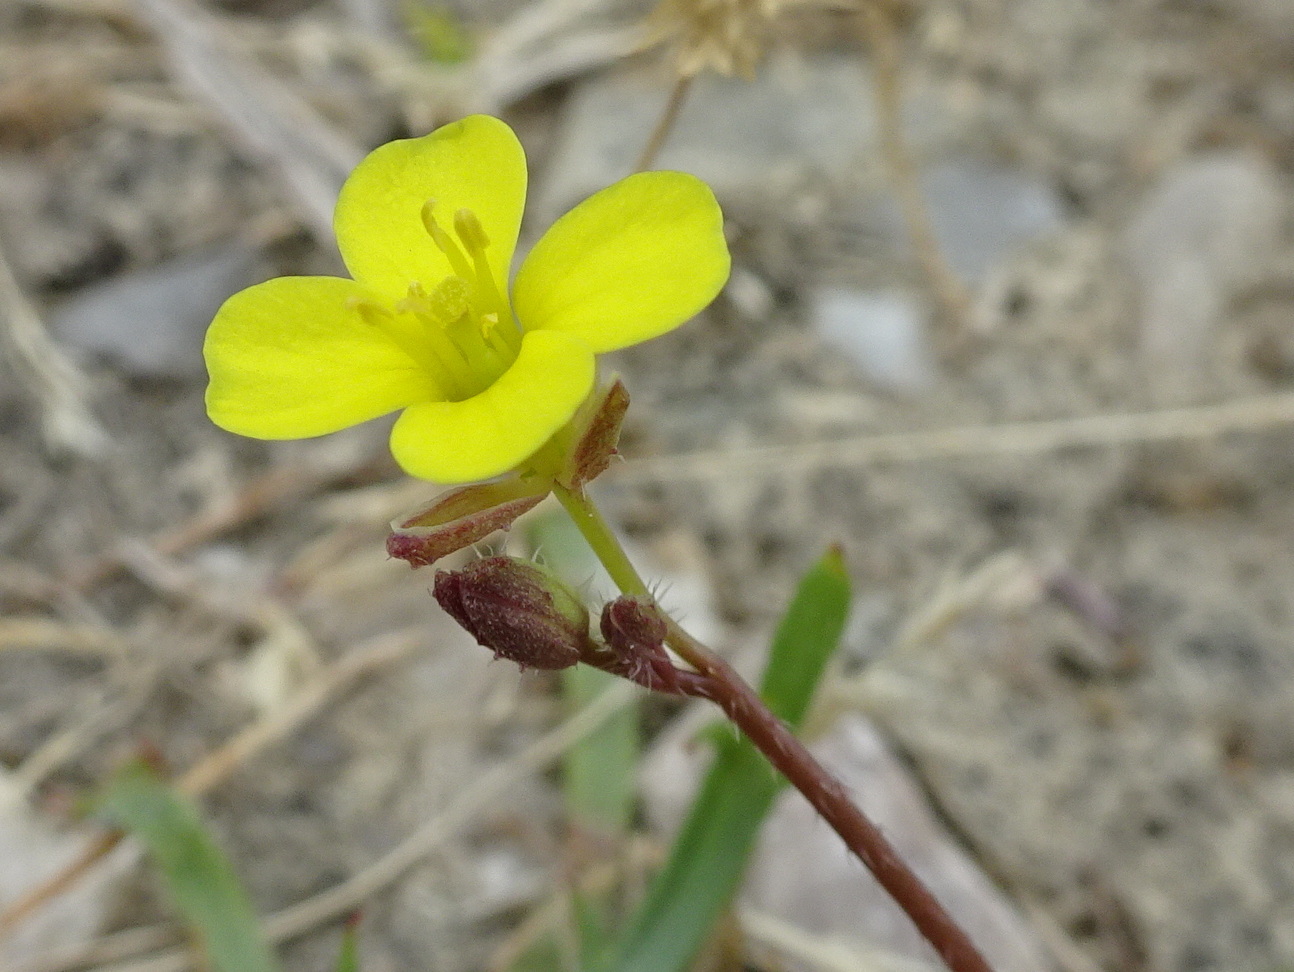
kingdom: Plantae
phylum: Tracheophyta
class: Magnoliopsida
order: Brassicales
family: Brassicaceae
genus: Diplotaxis
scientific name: Diplotaxis muralis
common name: Annual wall-rocket
